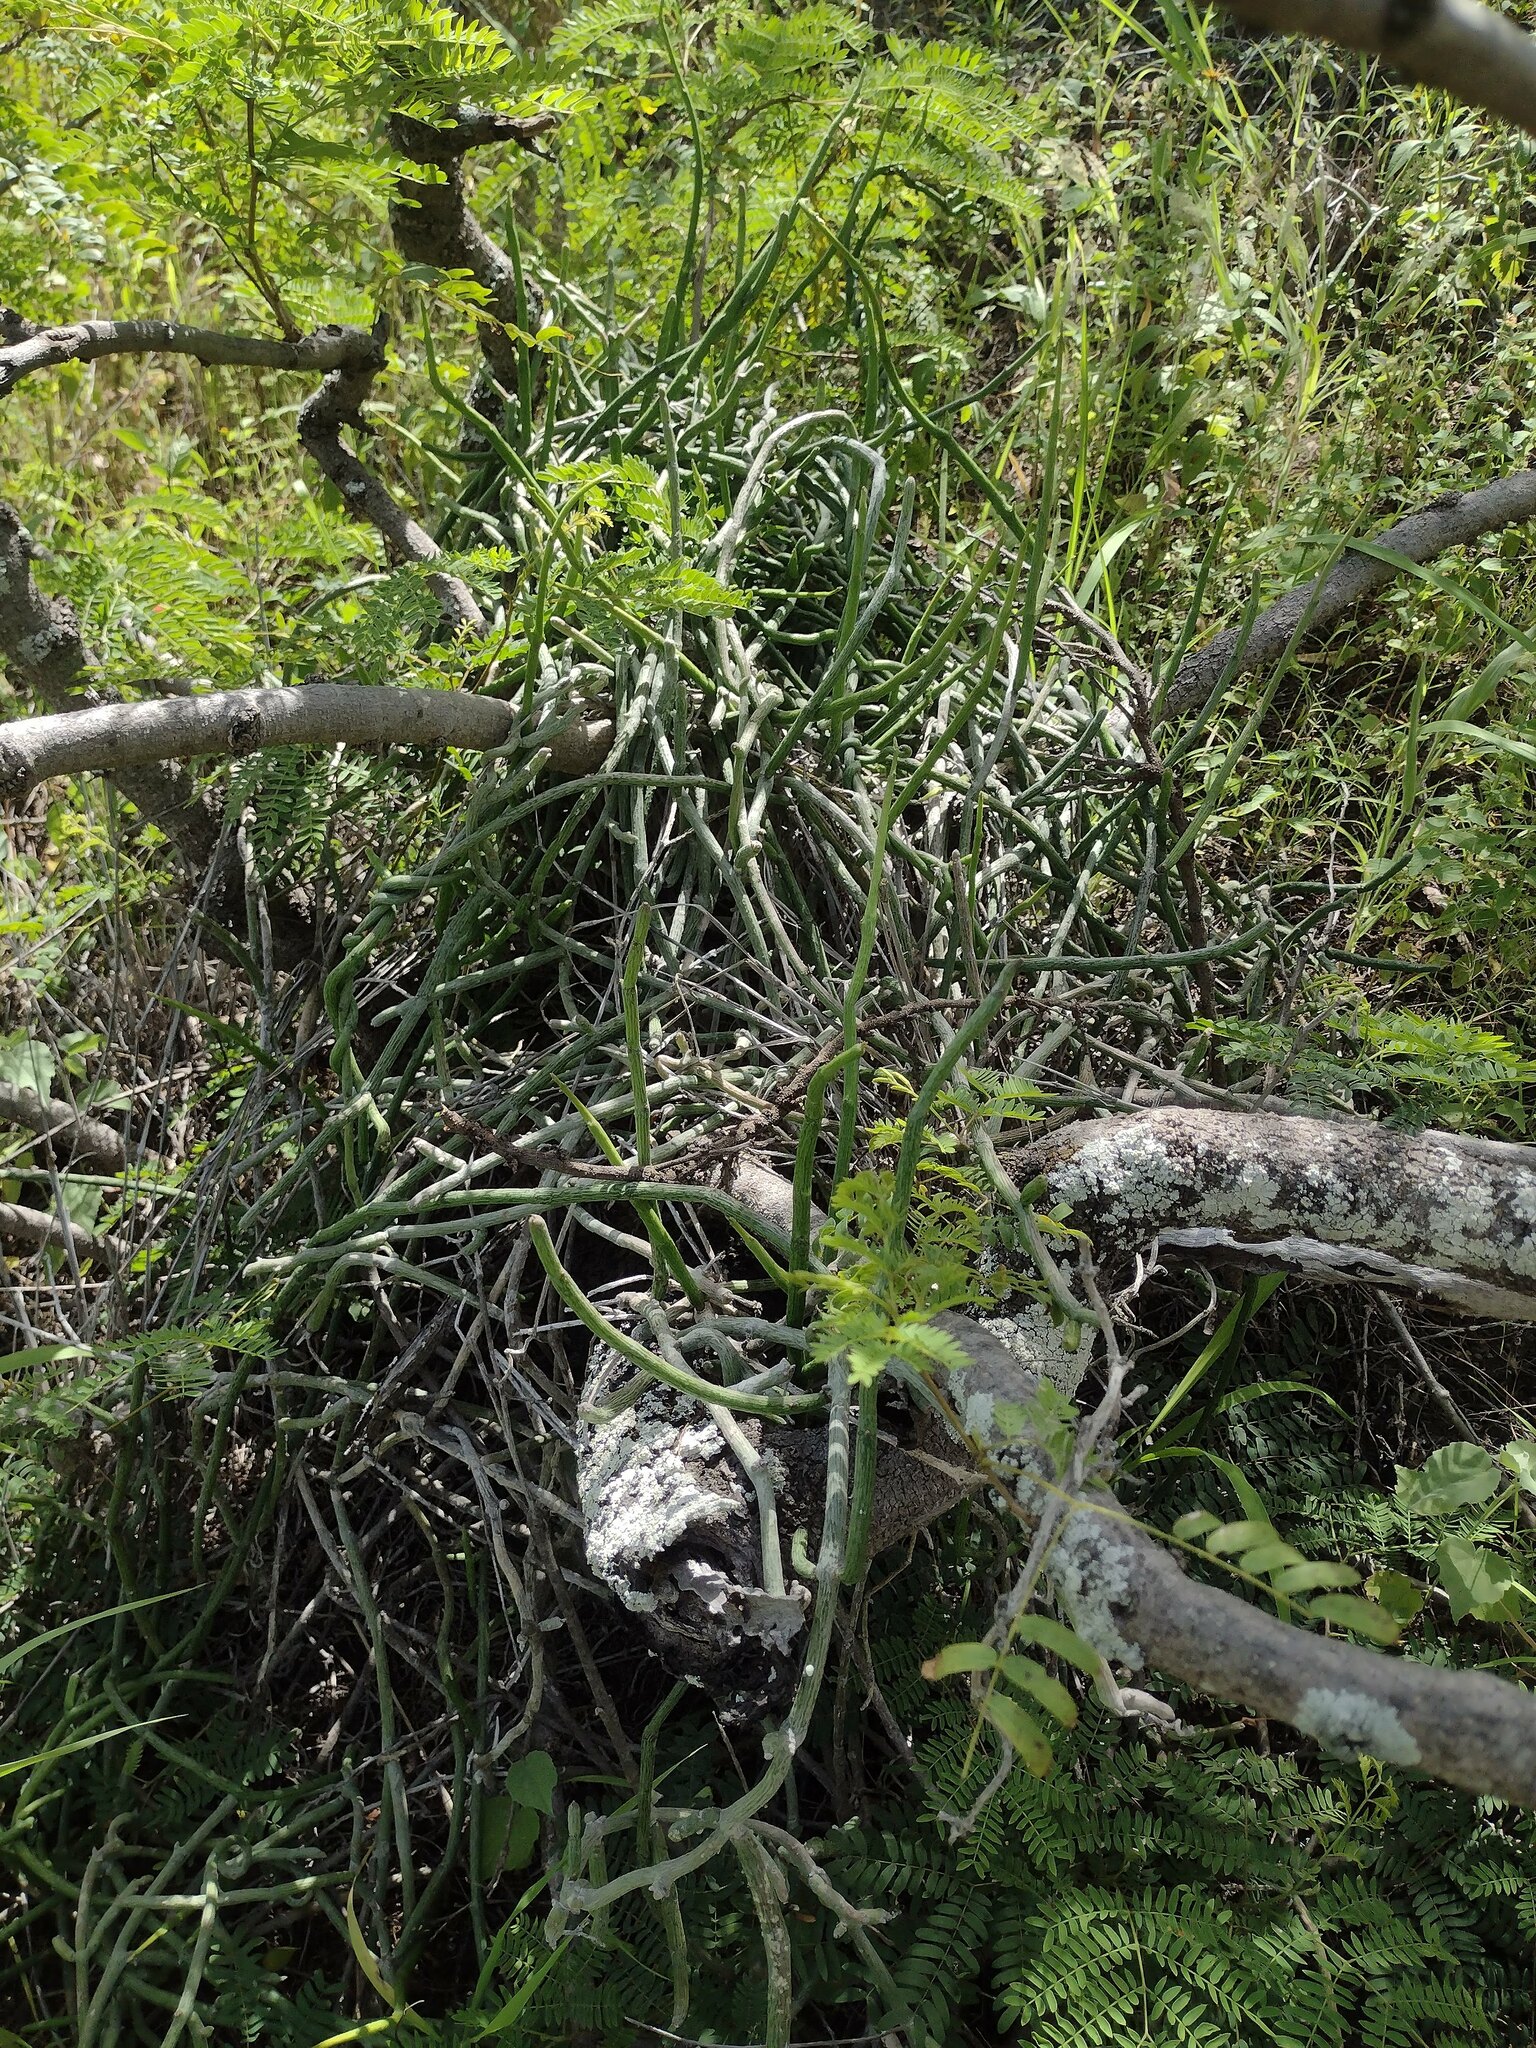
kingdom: Plantae
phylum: Tracheophyta
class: Magnoliopsida
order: Gentianales
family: Apocynaceae
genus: Cynanchum
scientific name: Cynanchum gerrardi
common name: Swallow-wort
